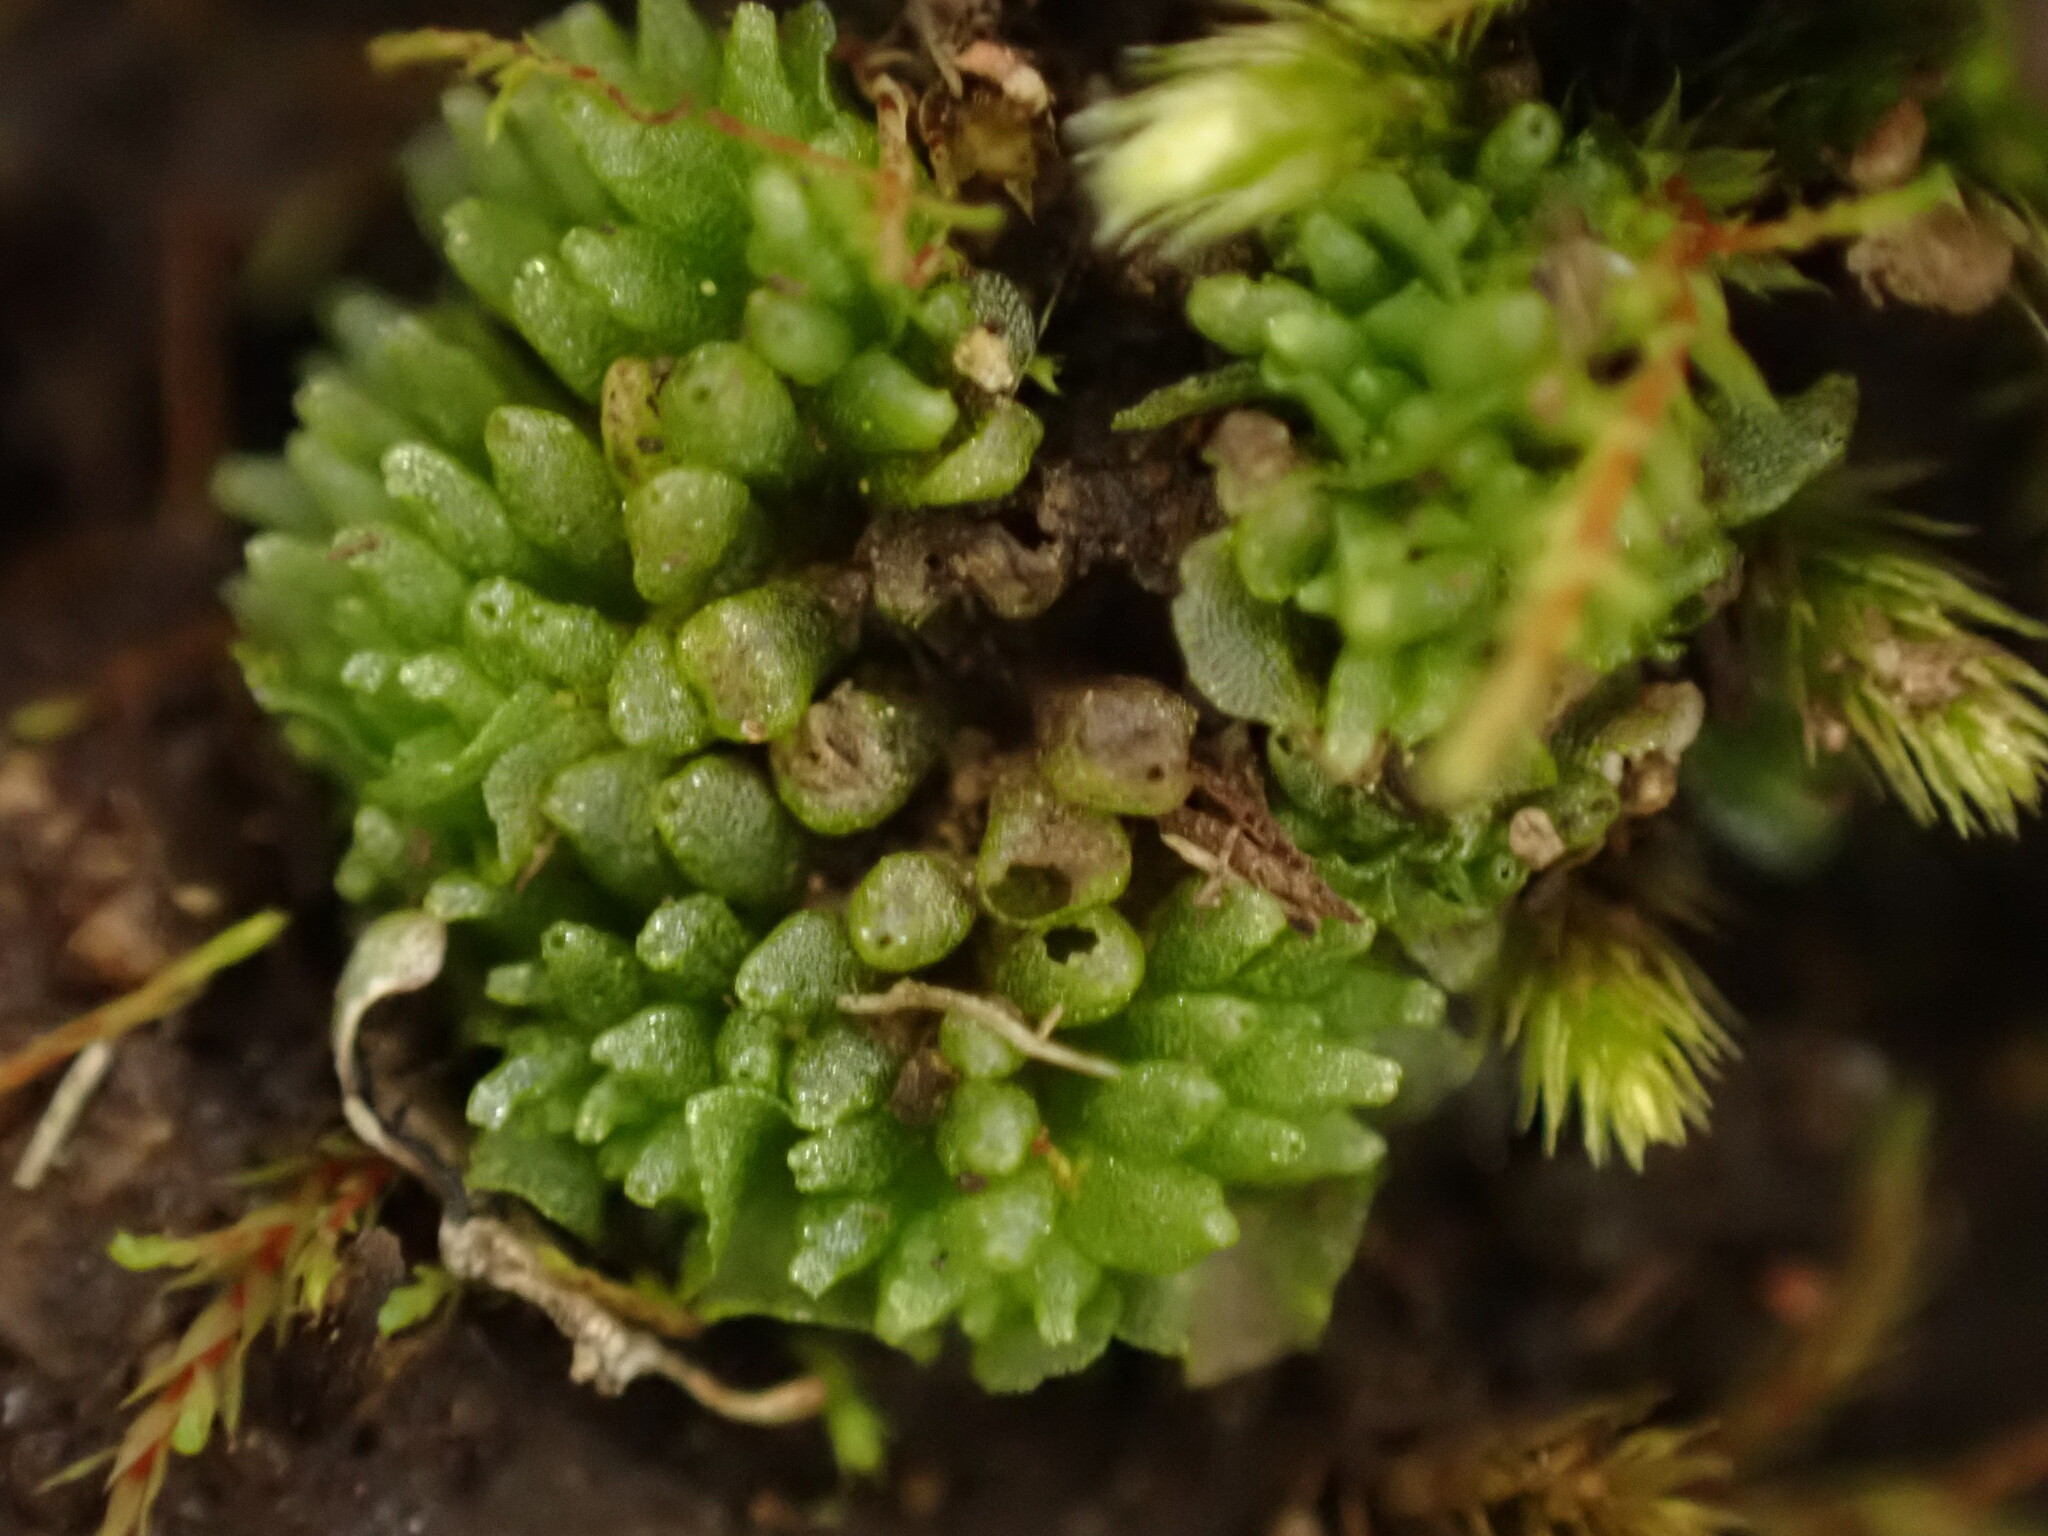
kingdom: Plantae
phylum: Marchantiophyta
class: Marchantiopsida
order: Sphaerocarpales
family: Sphaerocarpaceae
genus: Sphaerocarpos
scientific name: Sphaerocarpos texanus
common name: Texas balloonwort
